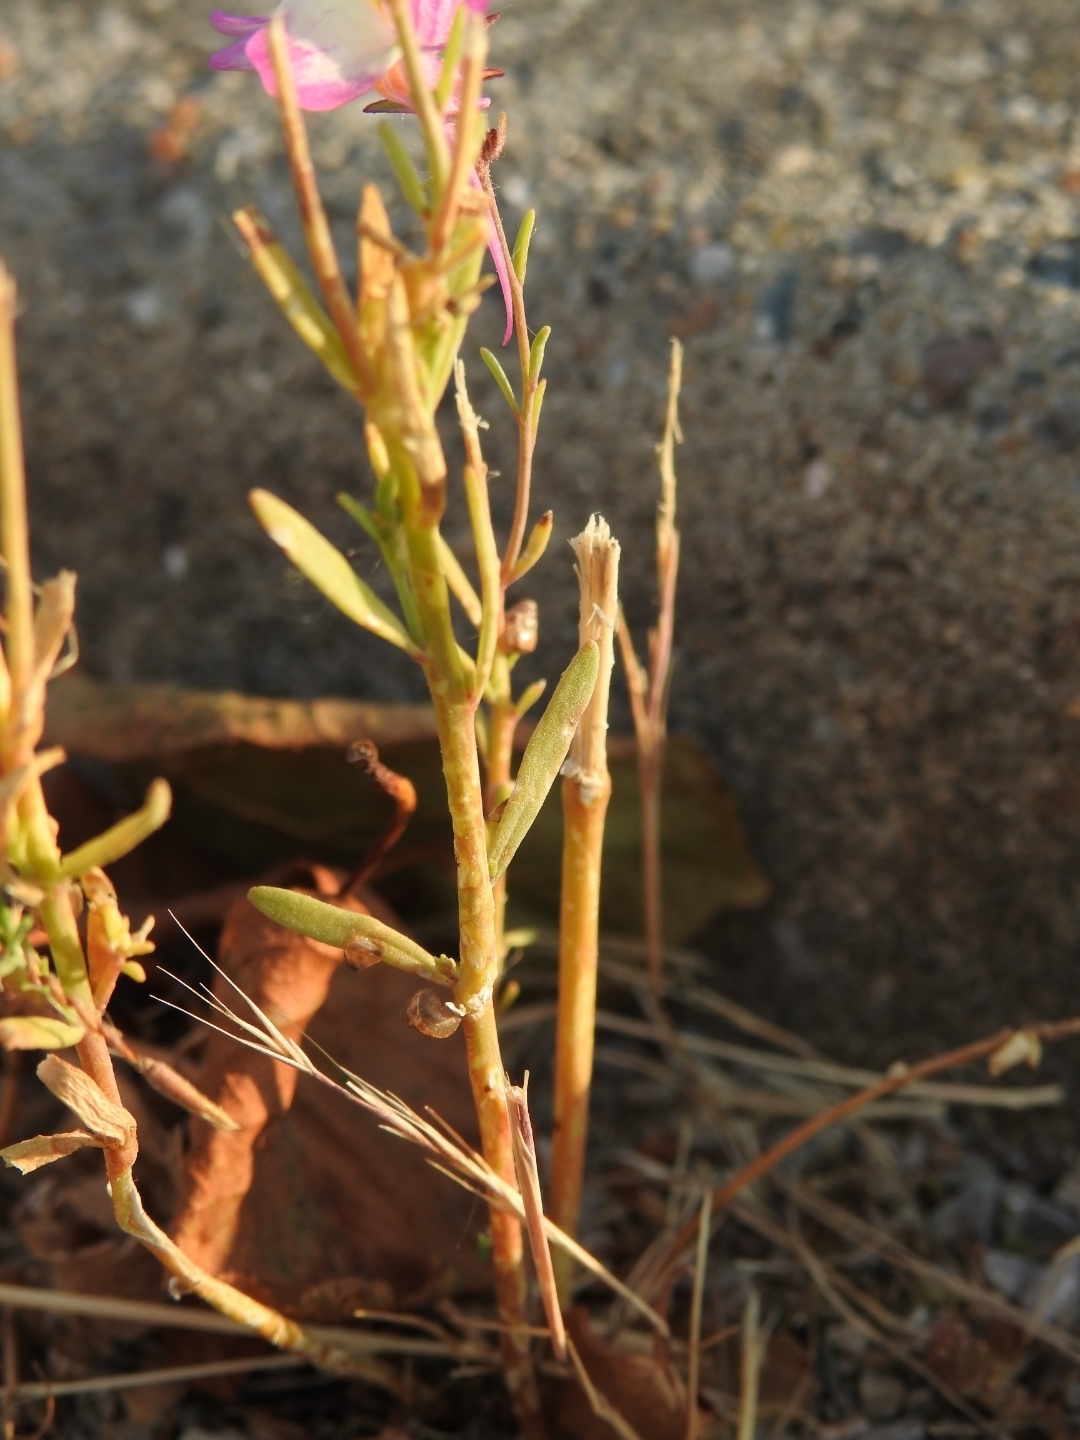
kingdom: Plantae
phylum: Tracheophyta
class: Magnoliopsida
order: Lamiales
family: Plantaginaceae
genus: Linaria
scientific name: Linaria maroccana
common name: Moroccan toadflax
